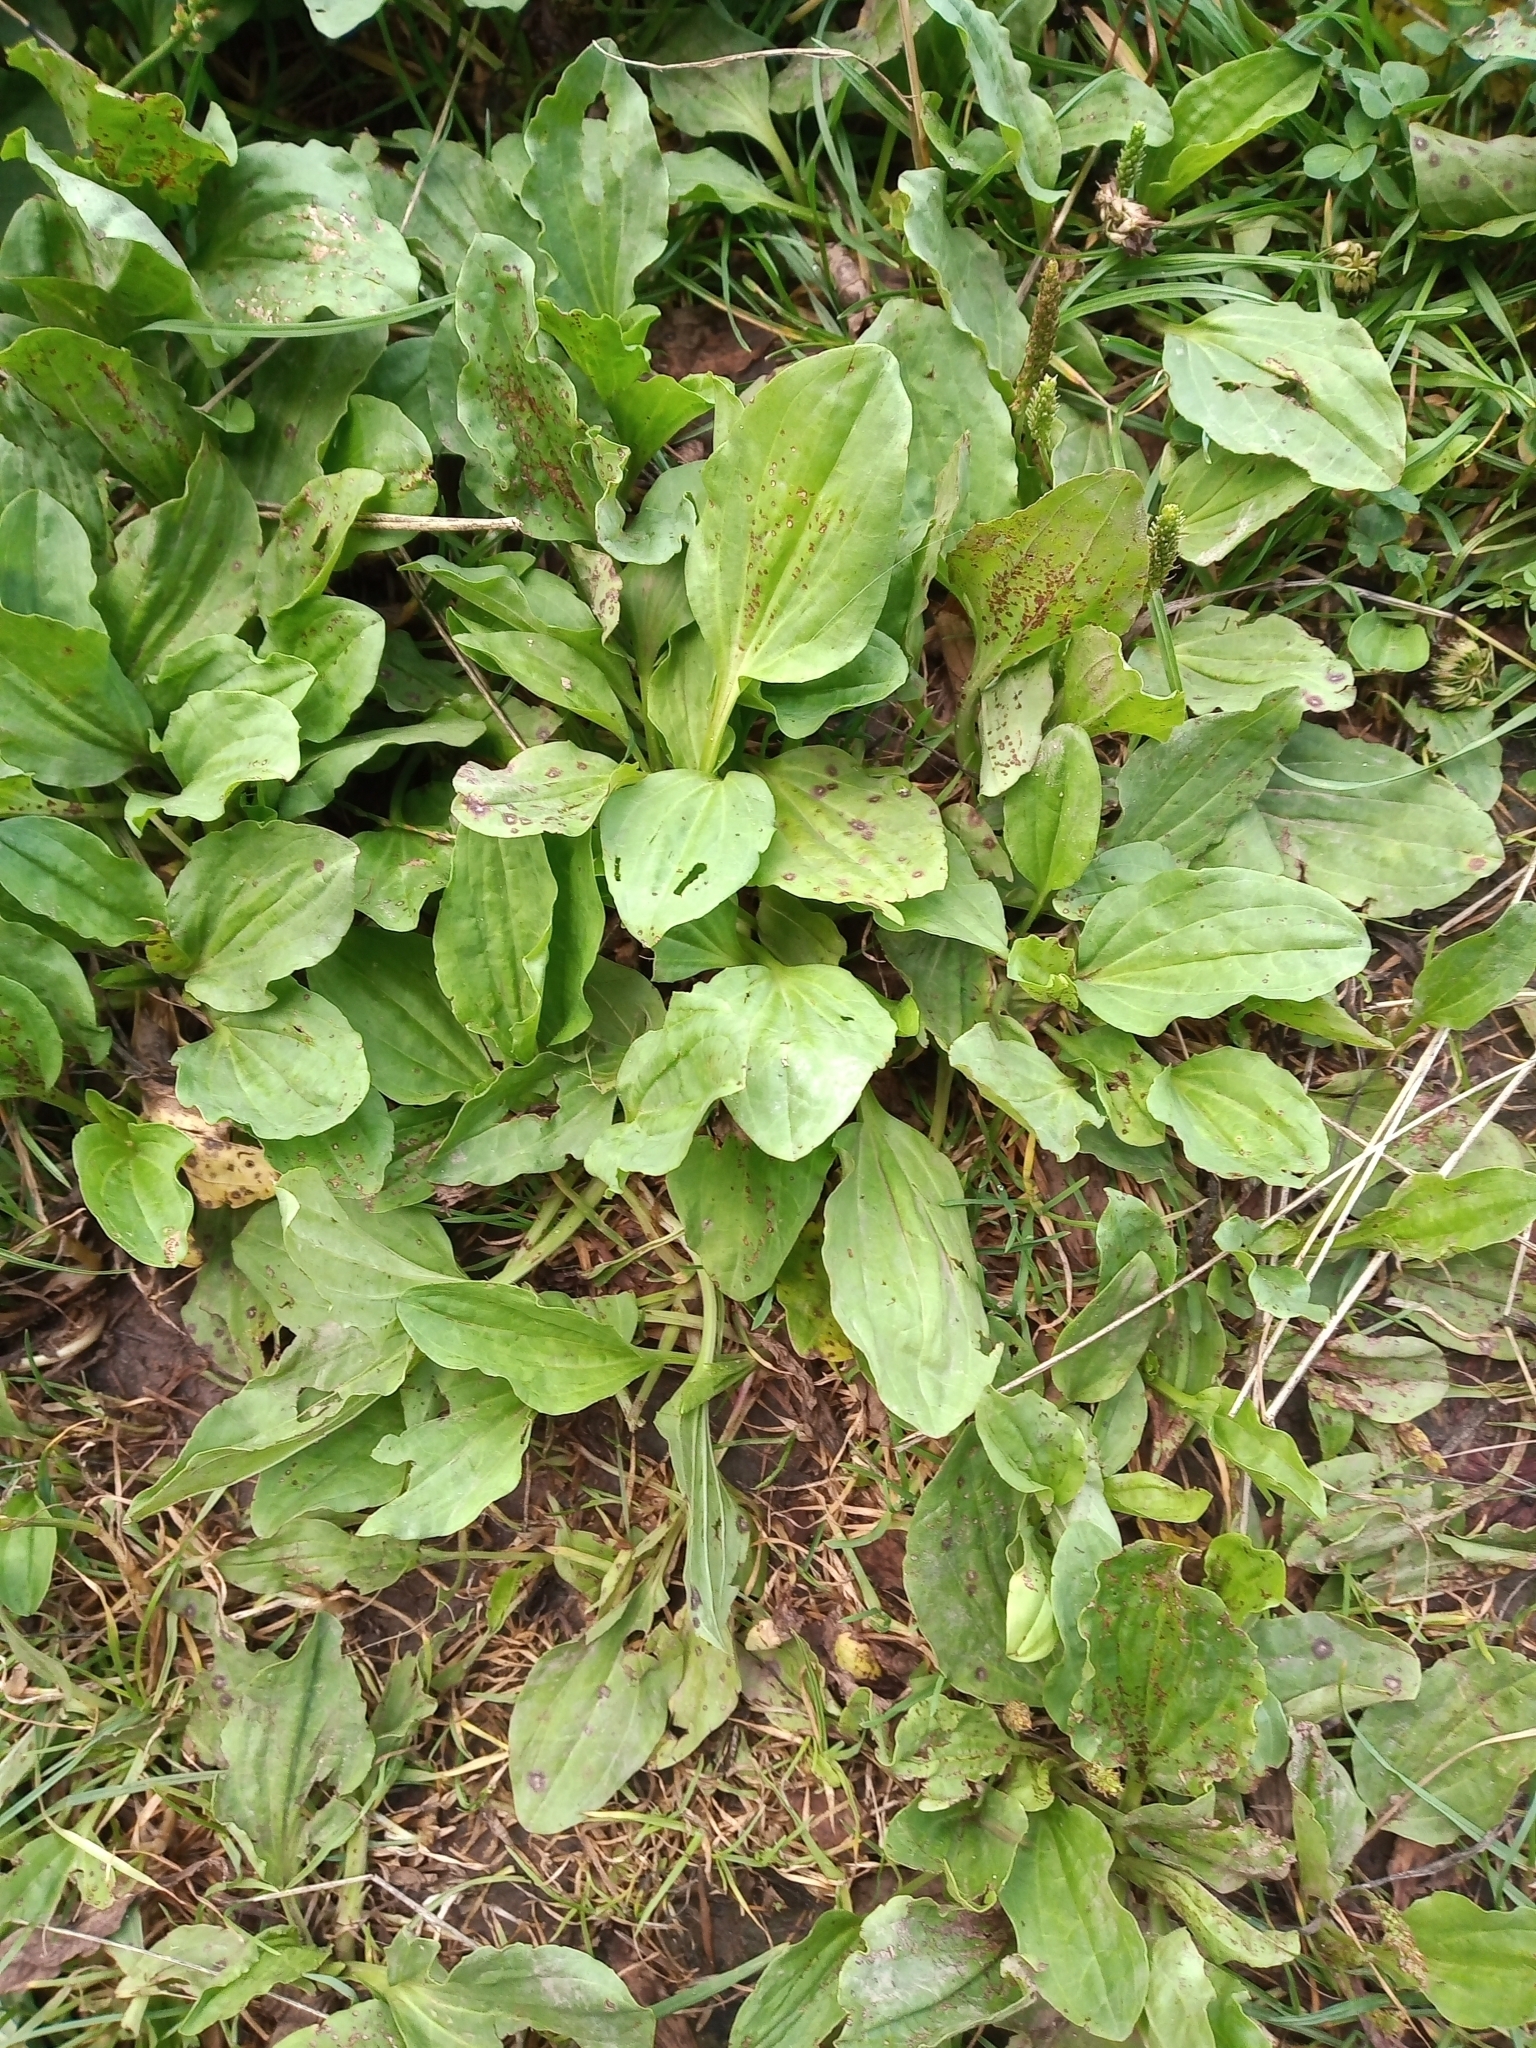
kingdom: Plantae
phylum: Tracheophyta
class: Magnoliopsida
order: Lamiales
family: Plantaginaceae
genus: Plantago
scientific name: Plantago major
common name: Common plantain
